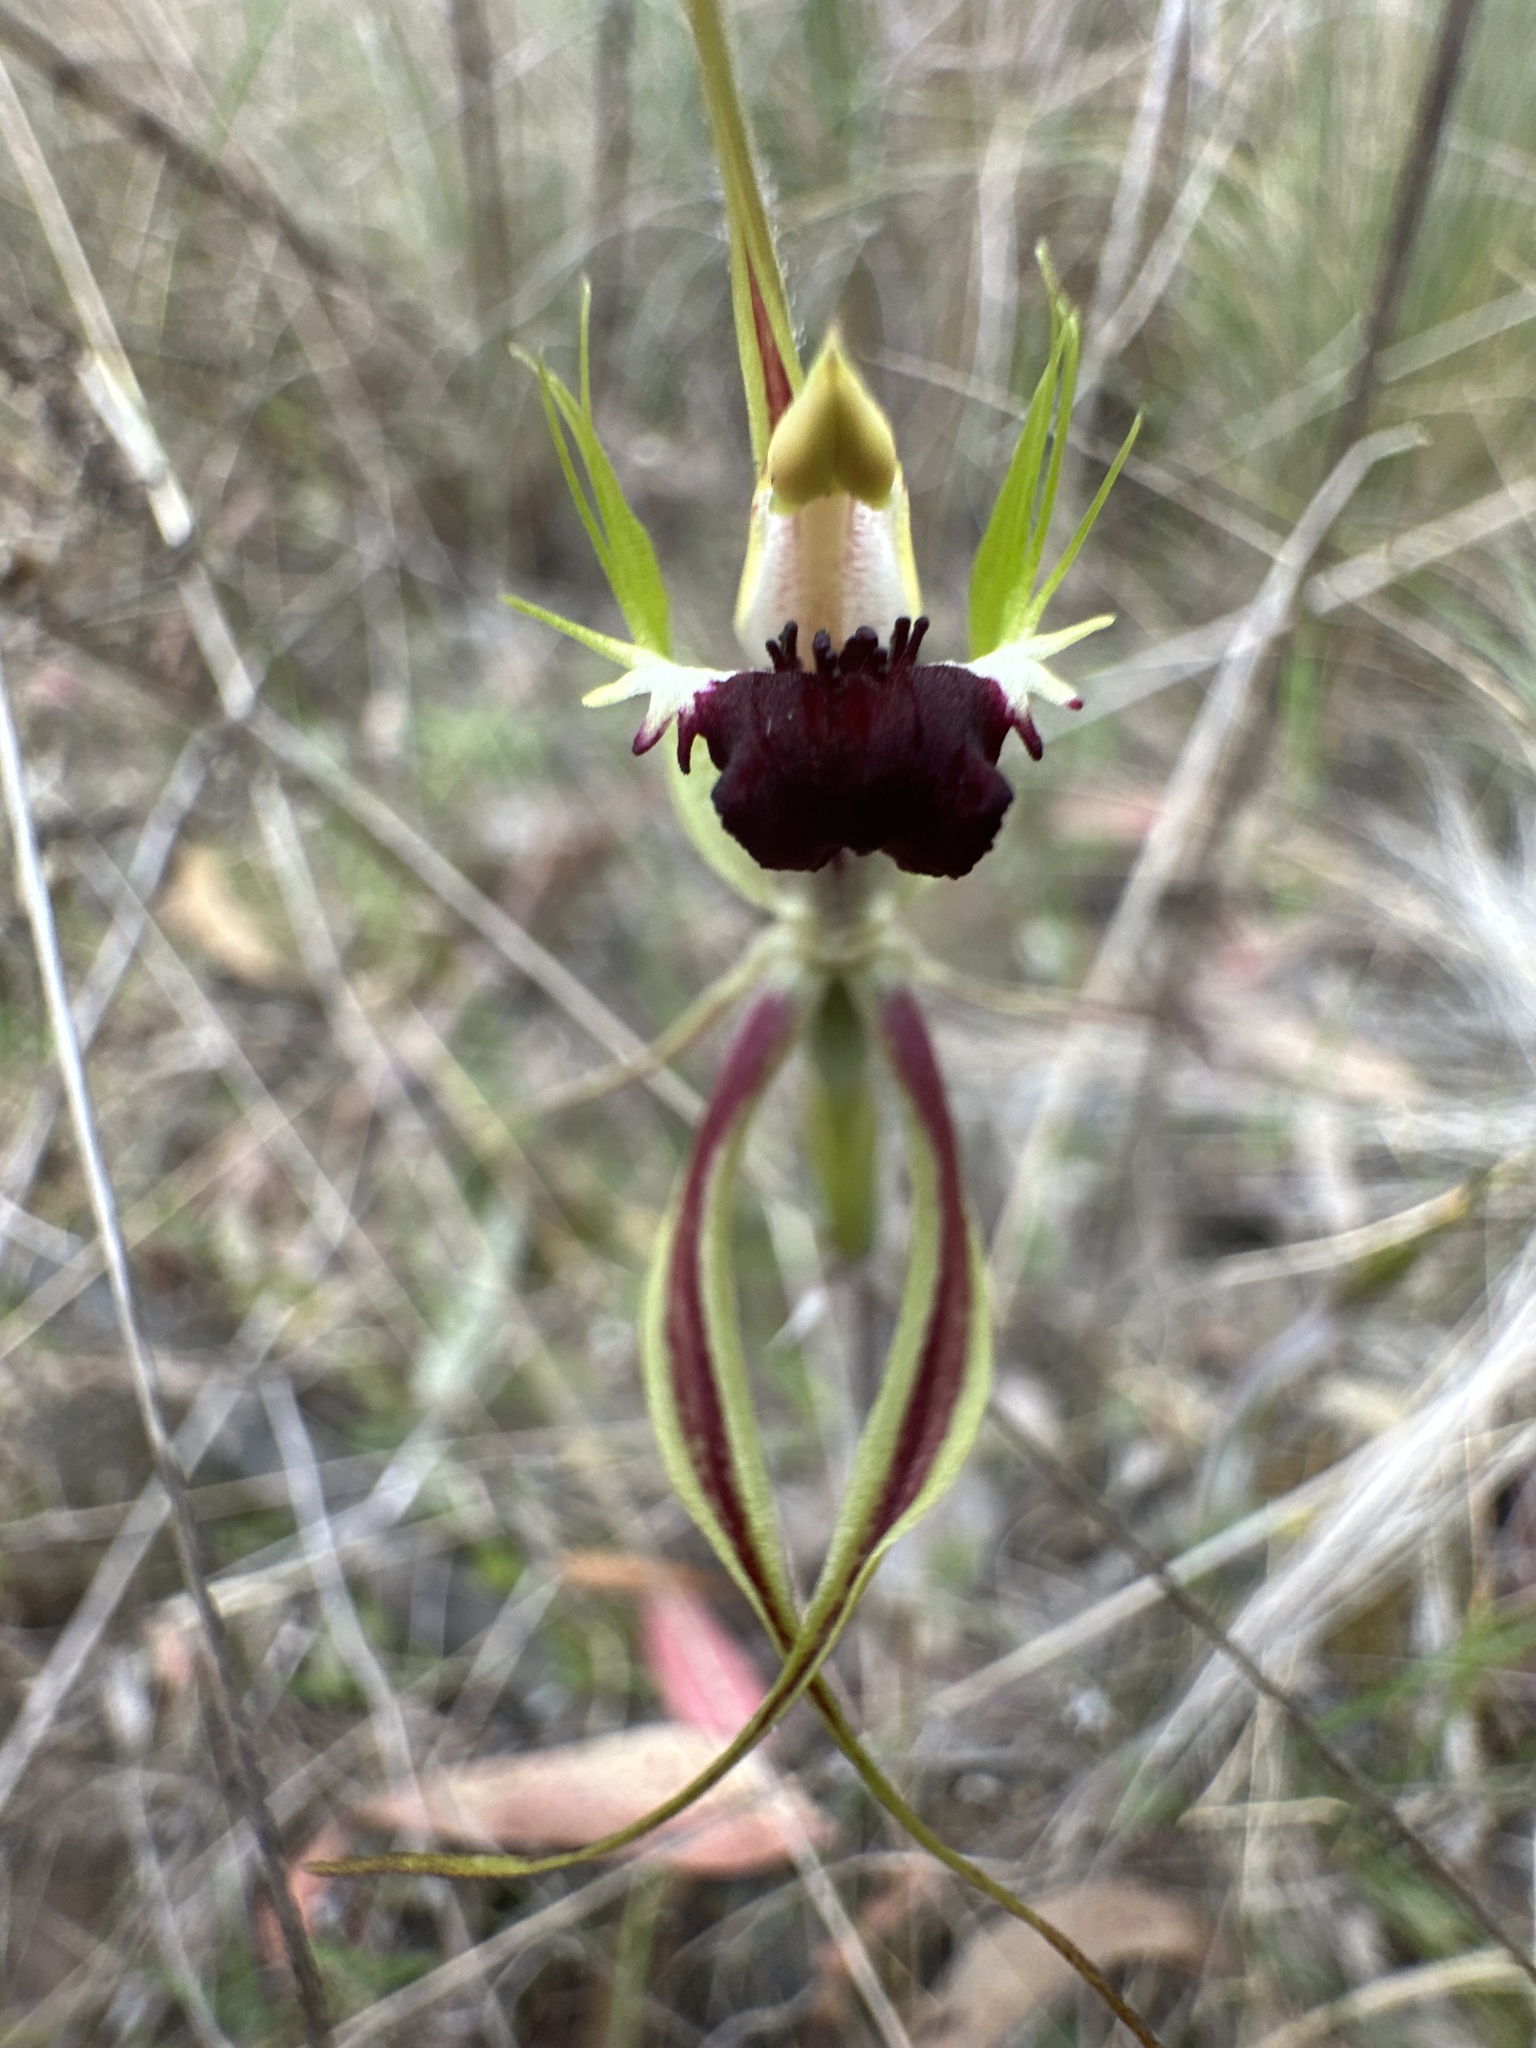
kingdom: Plantae
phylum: Tracheophyta
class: Liliopsida
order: Asparagales
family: Orchidaceae
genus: Caladenia
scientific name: Caladenia atrovespa
